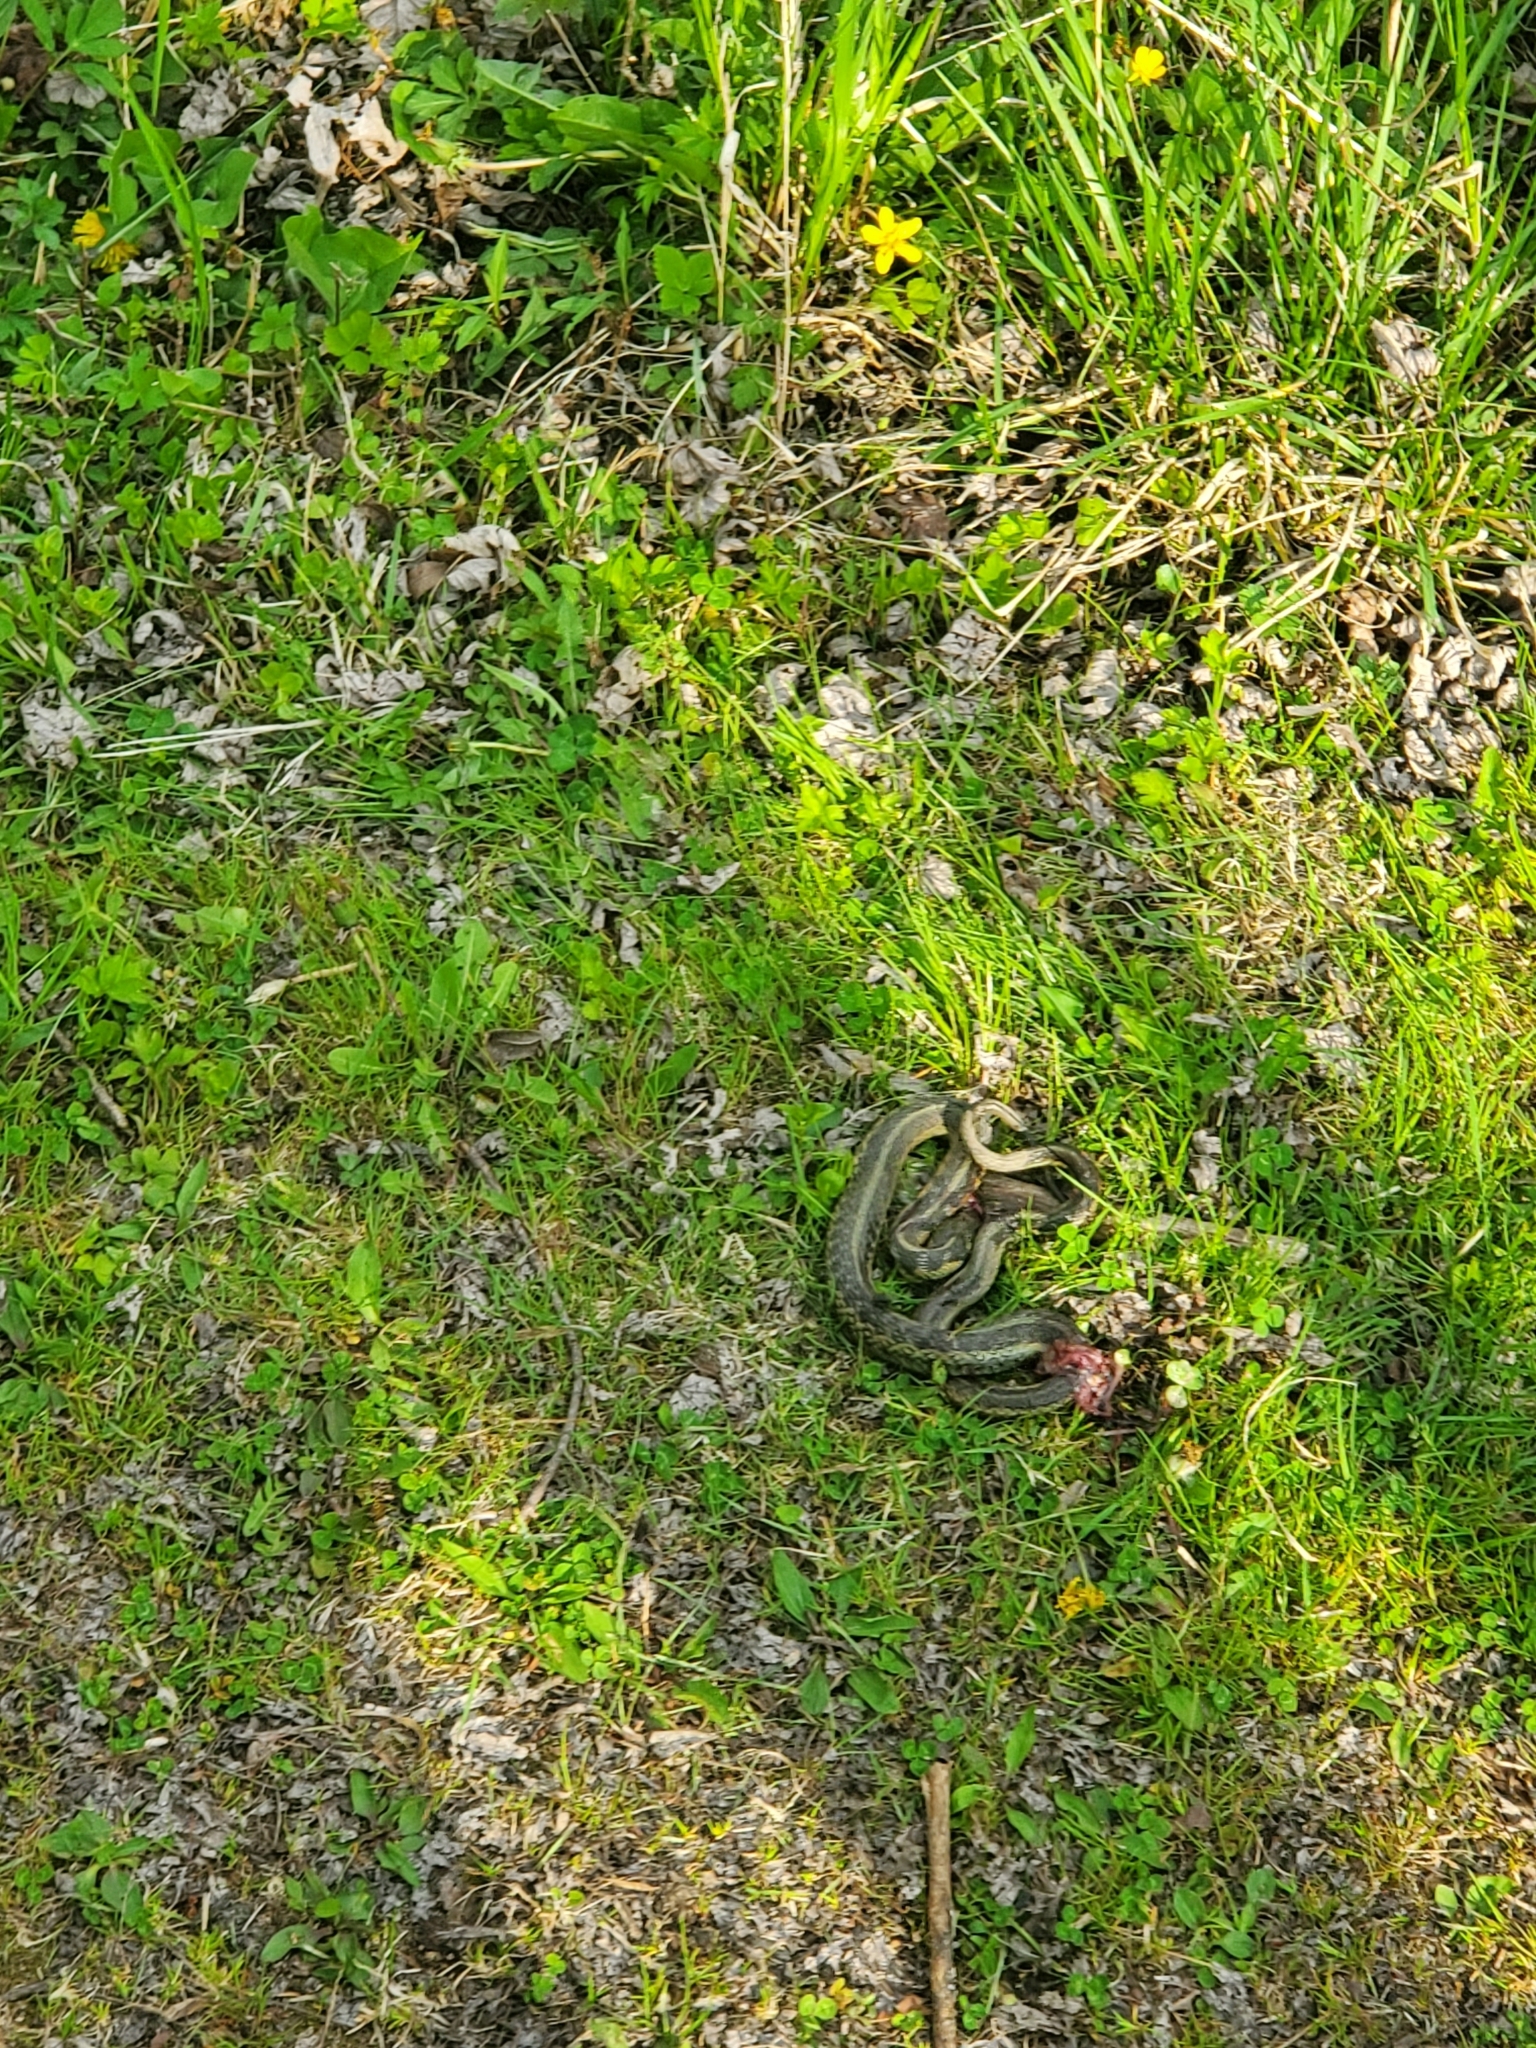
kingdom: Animalia
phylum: Chordata
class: Squamata
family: Colubridae
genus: Thamnophis
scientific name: Thamnophis sirtalis
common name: Common garter snake
